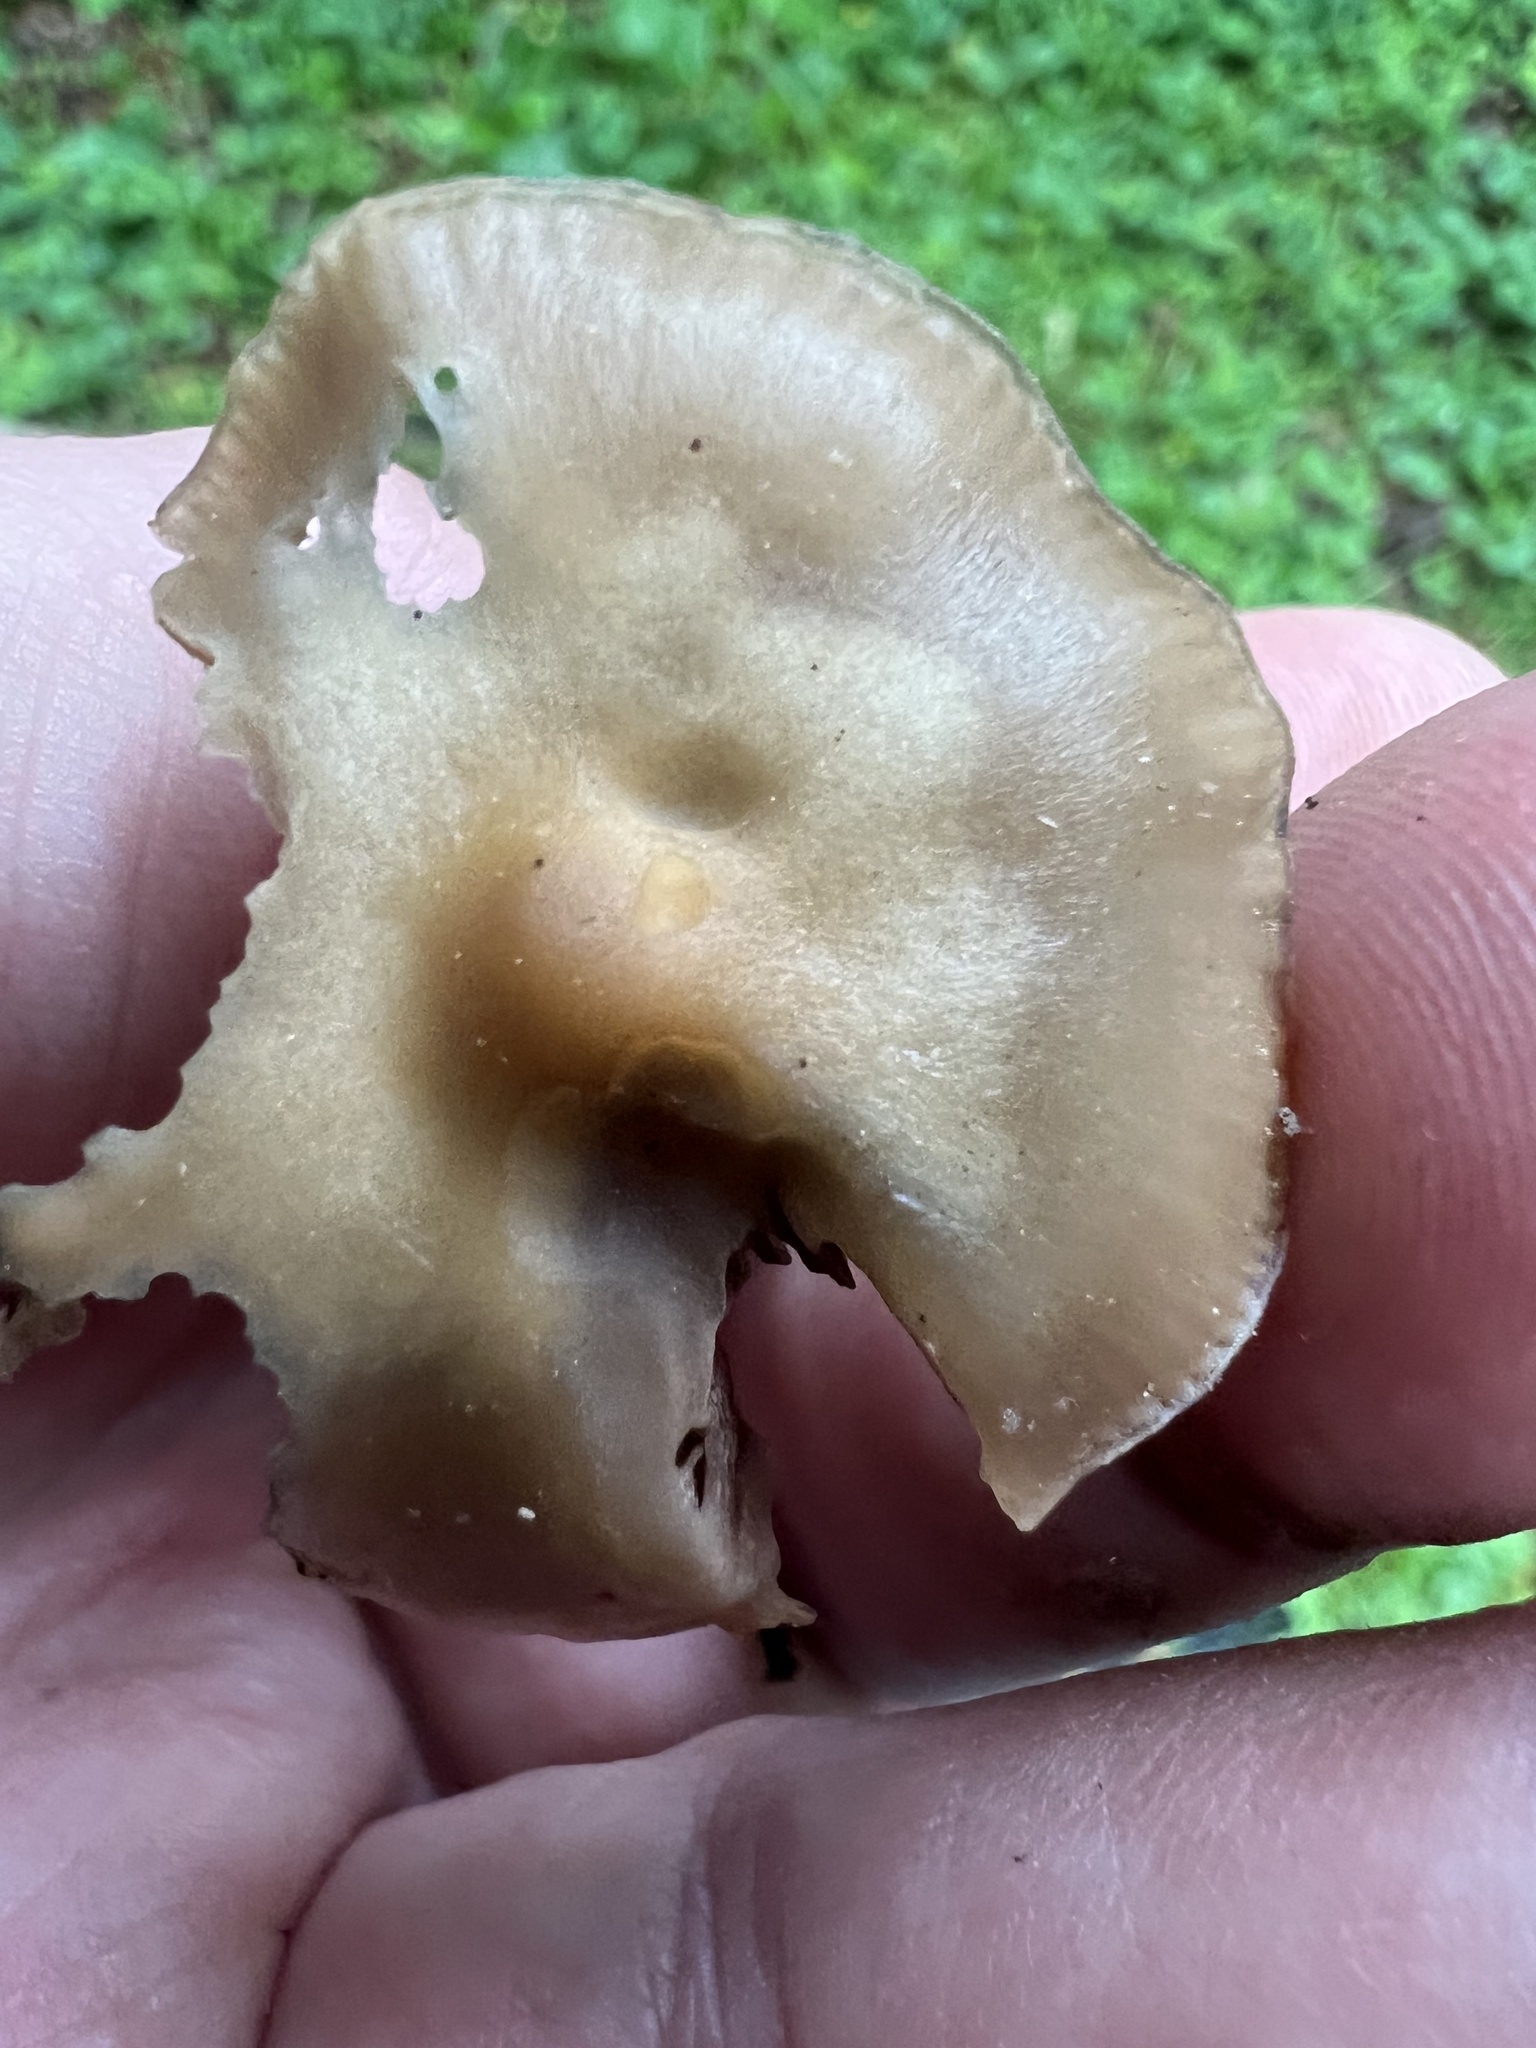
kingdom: Fungi
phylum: Basidiomycota
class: Agaricomycetes
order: Agaricales
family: Hymenogastraceae
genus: Psilocybe
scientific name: Psilocybe ovoideocystidiata
